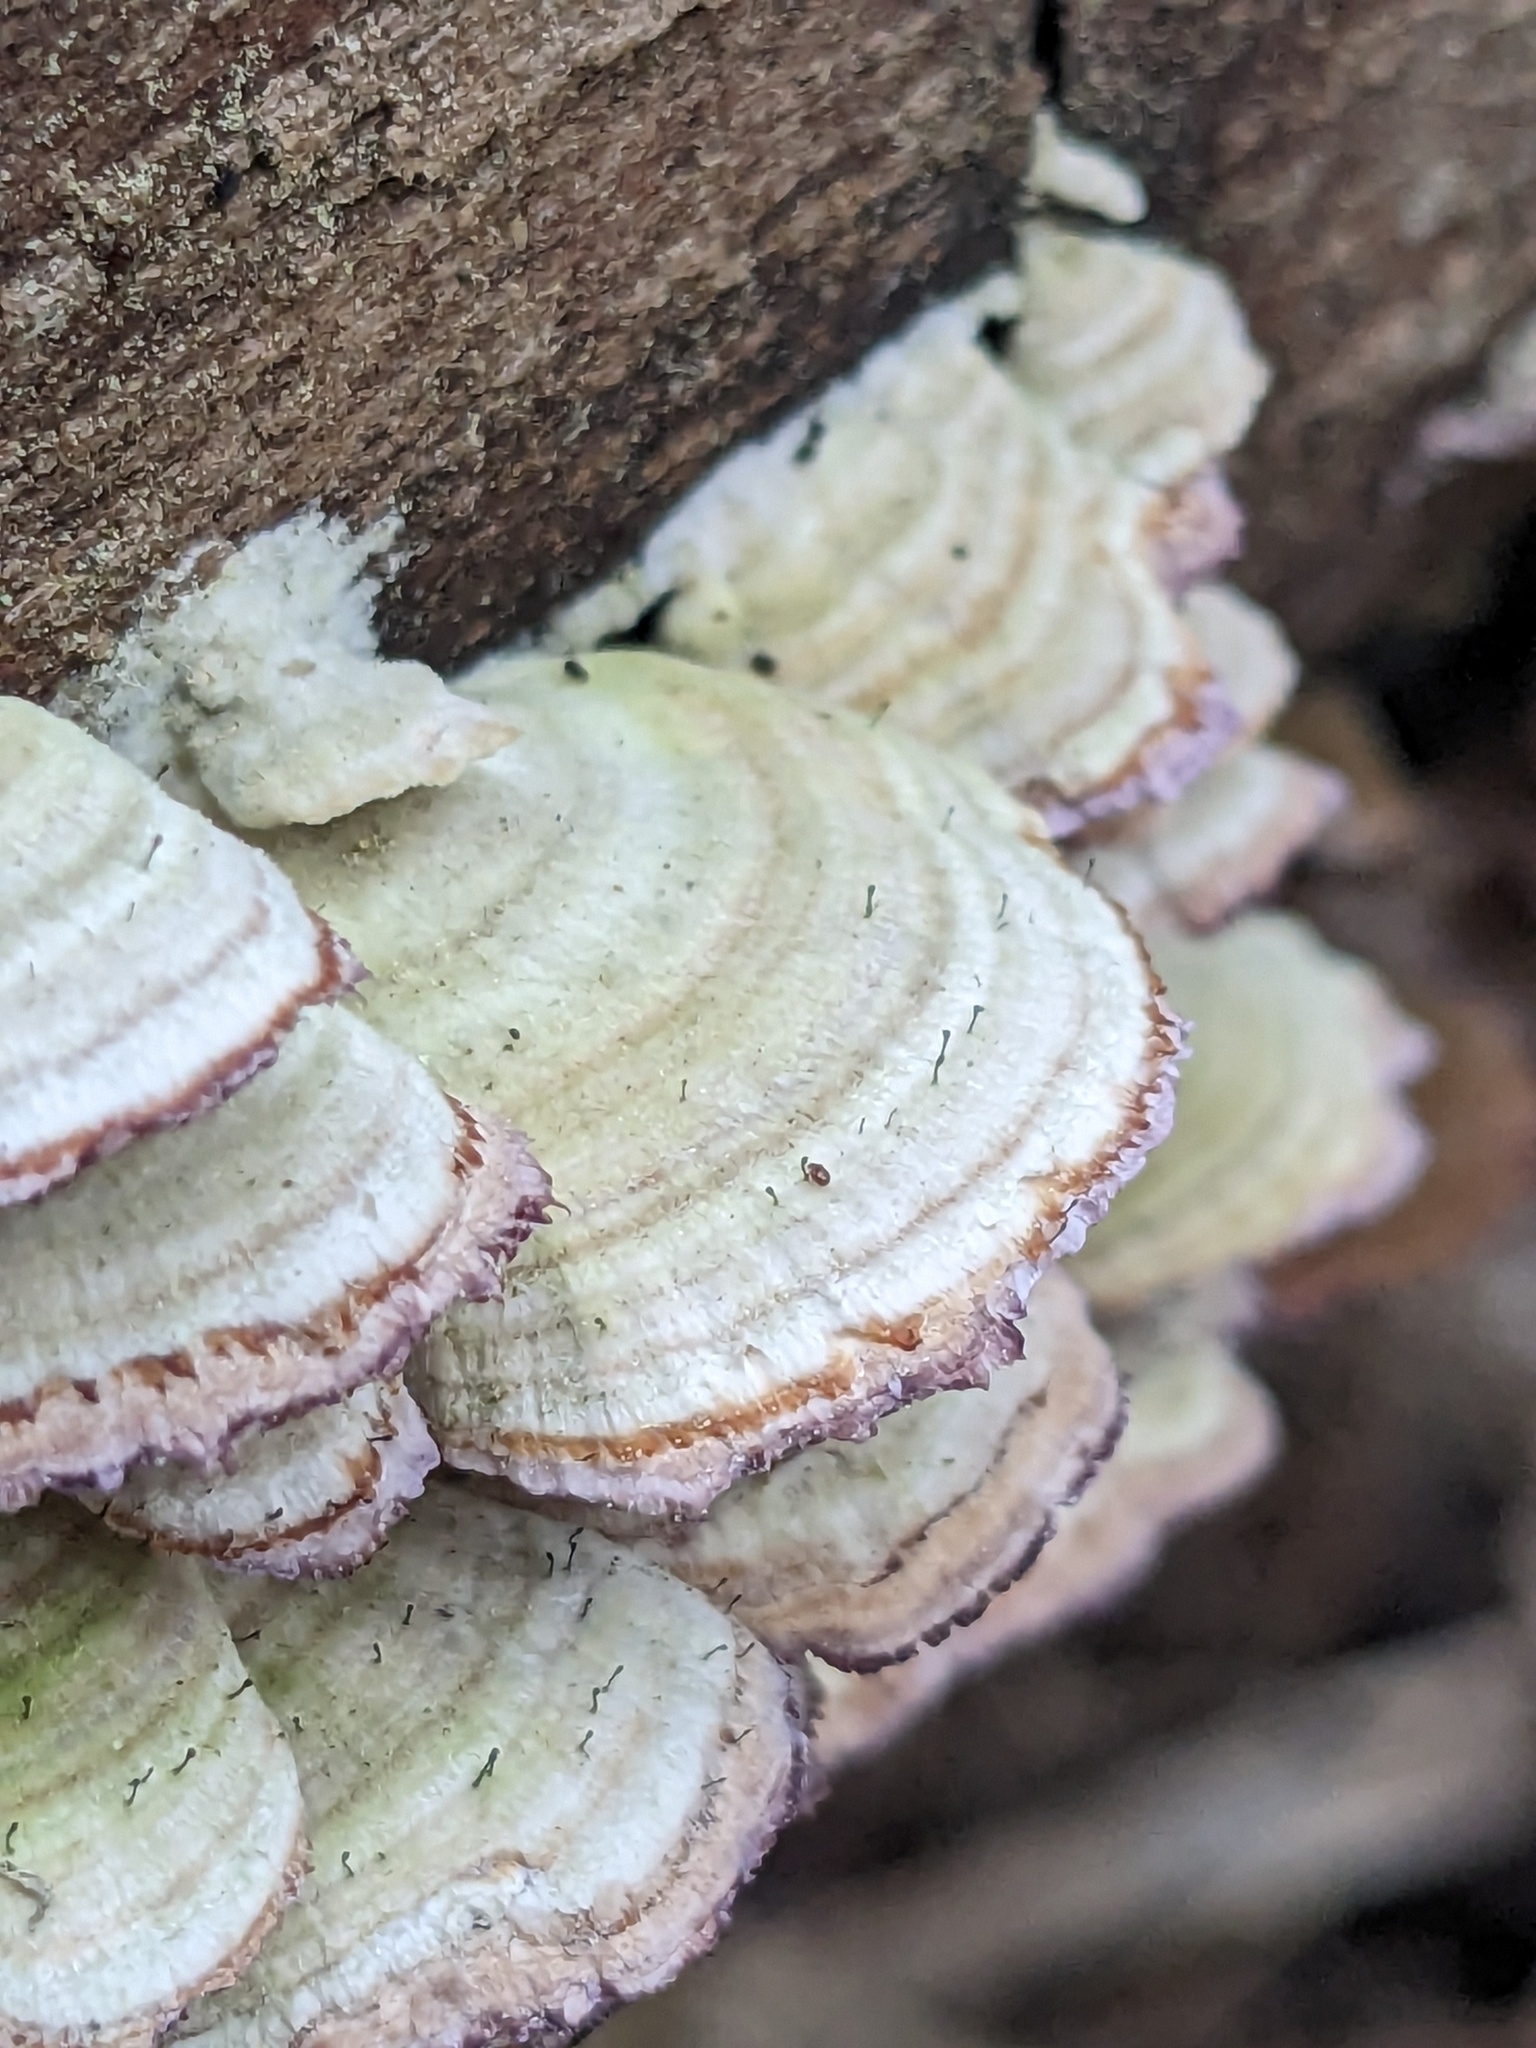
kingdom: Fungi
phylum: Ascomycota
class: Eurotiomycetes
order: Mycocaliciales
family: Mycocaliciaceae
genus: Phaeocalicium
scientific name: Phaeocalicium polyporaeum
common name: Fairy pins
